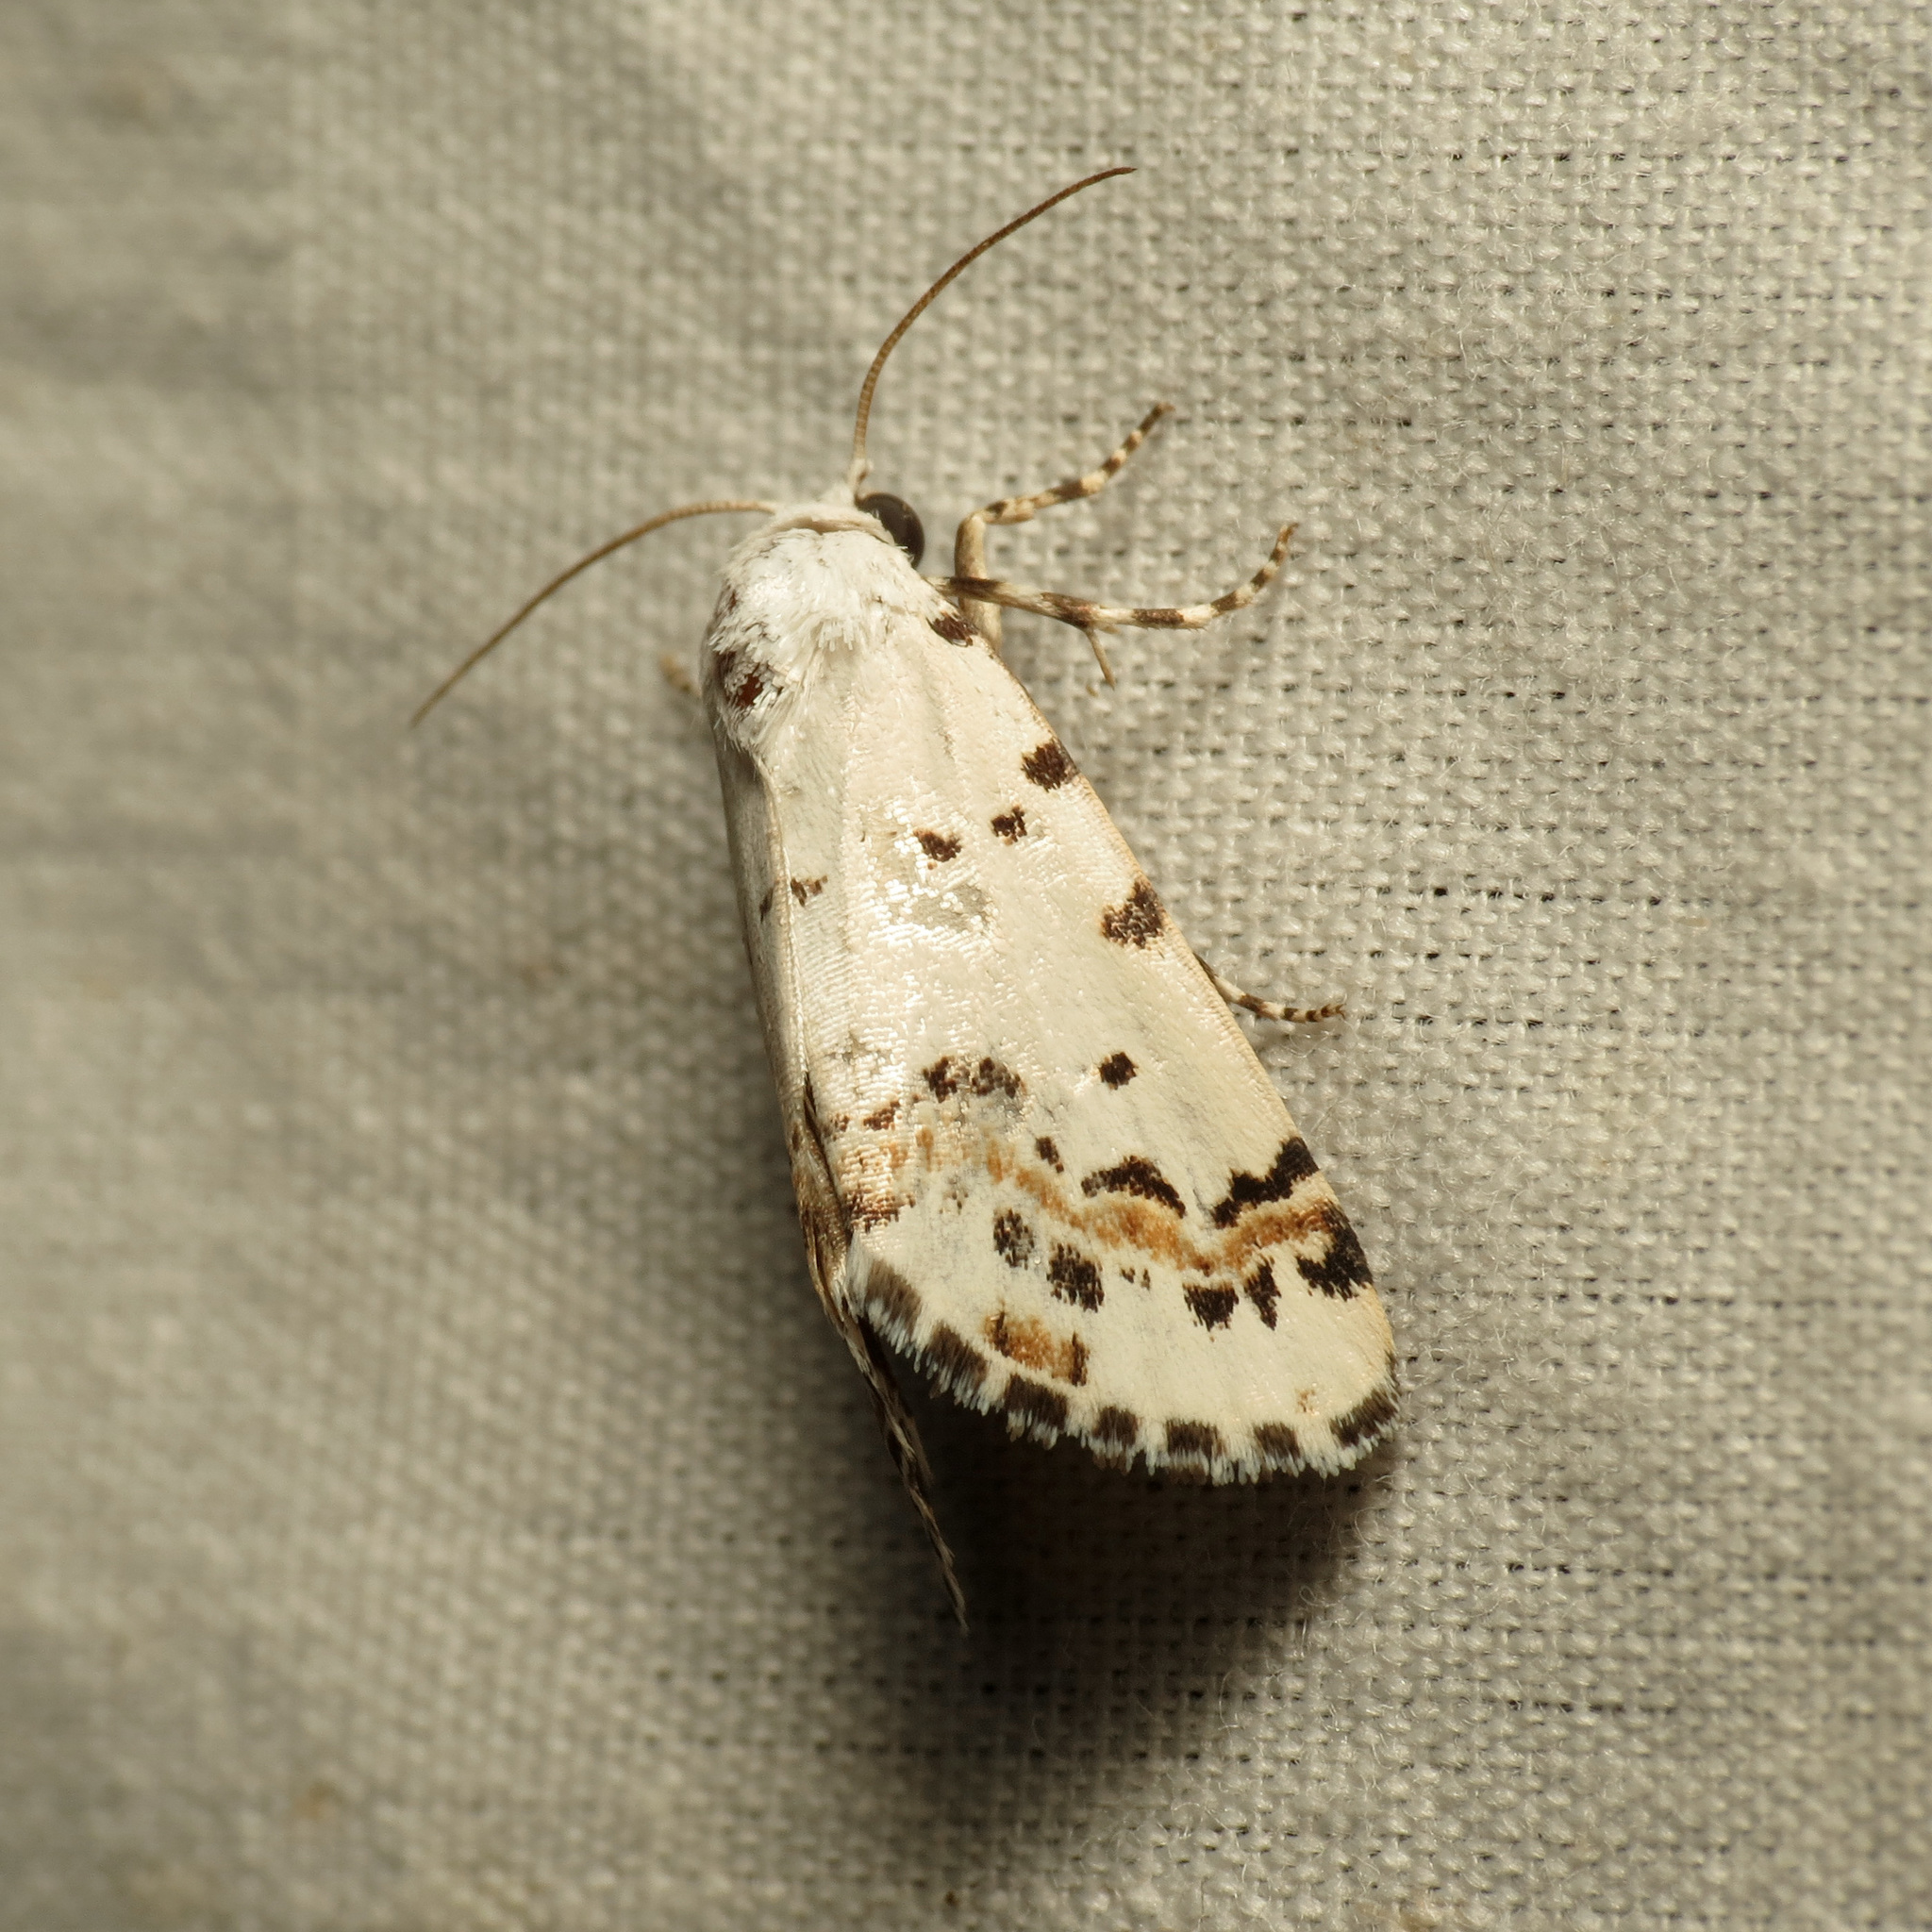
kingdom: Animalia
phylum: Arthropoda
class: Insecta
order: Lepidoptera
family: Noctuidae
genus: Grotella
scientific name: Grotella tricolor
